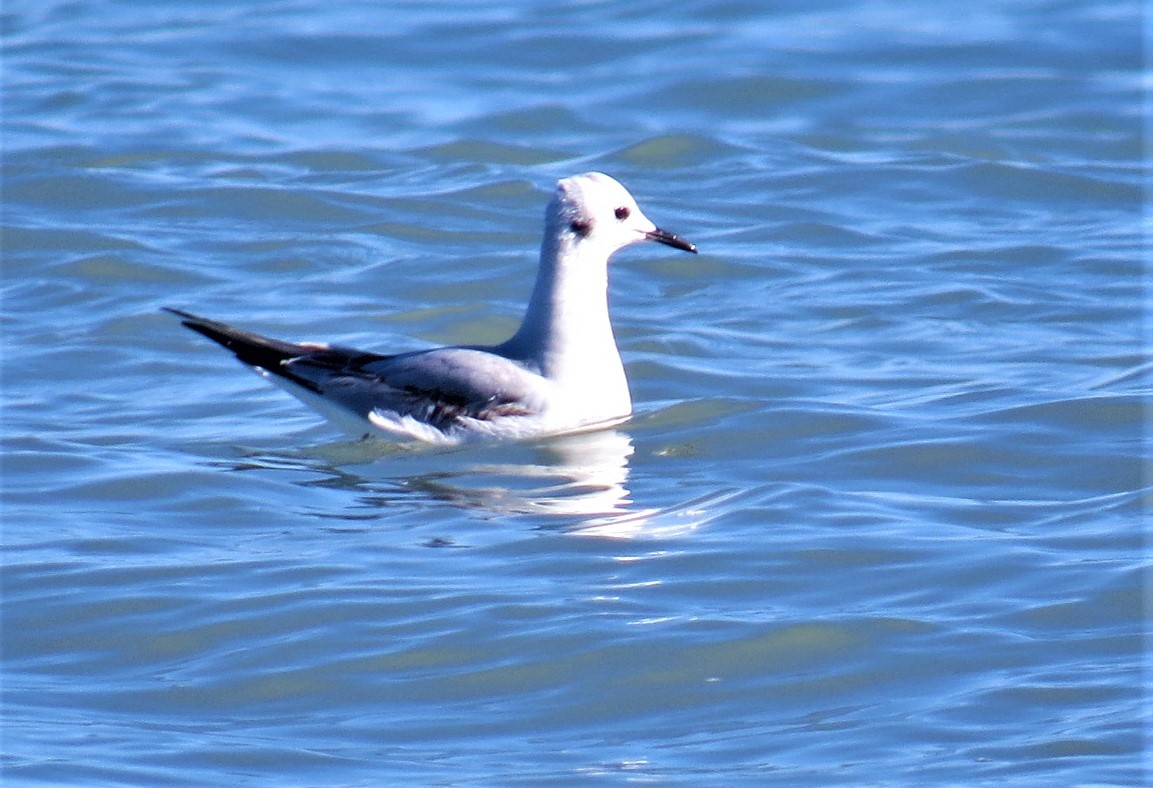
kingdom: Animalia
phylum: Chordata
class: Aves
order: Charadriiformes
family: Laridae
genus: Chroicocephalus
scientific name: Chroicocephalus philadelphia
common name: Bonaparte's gull
